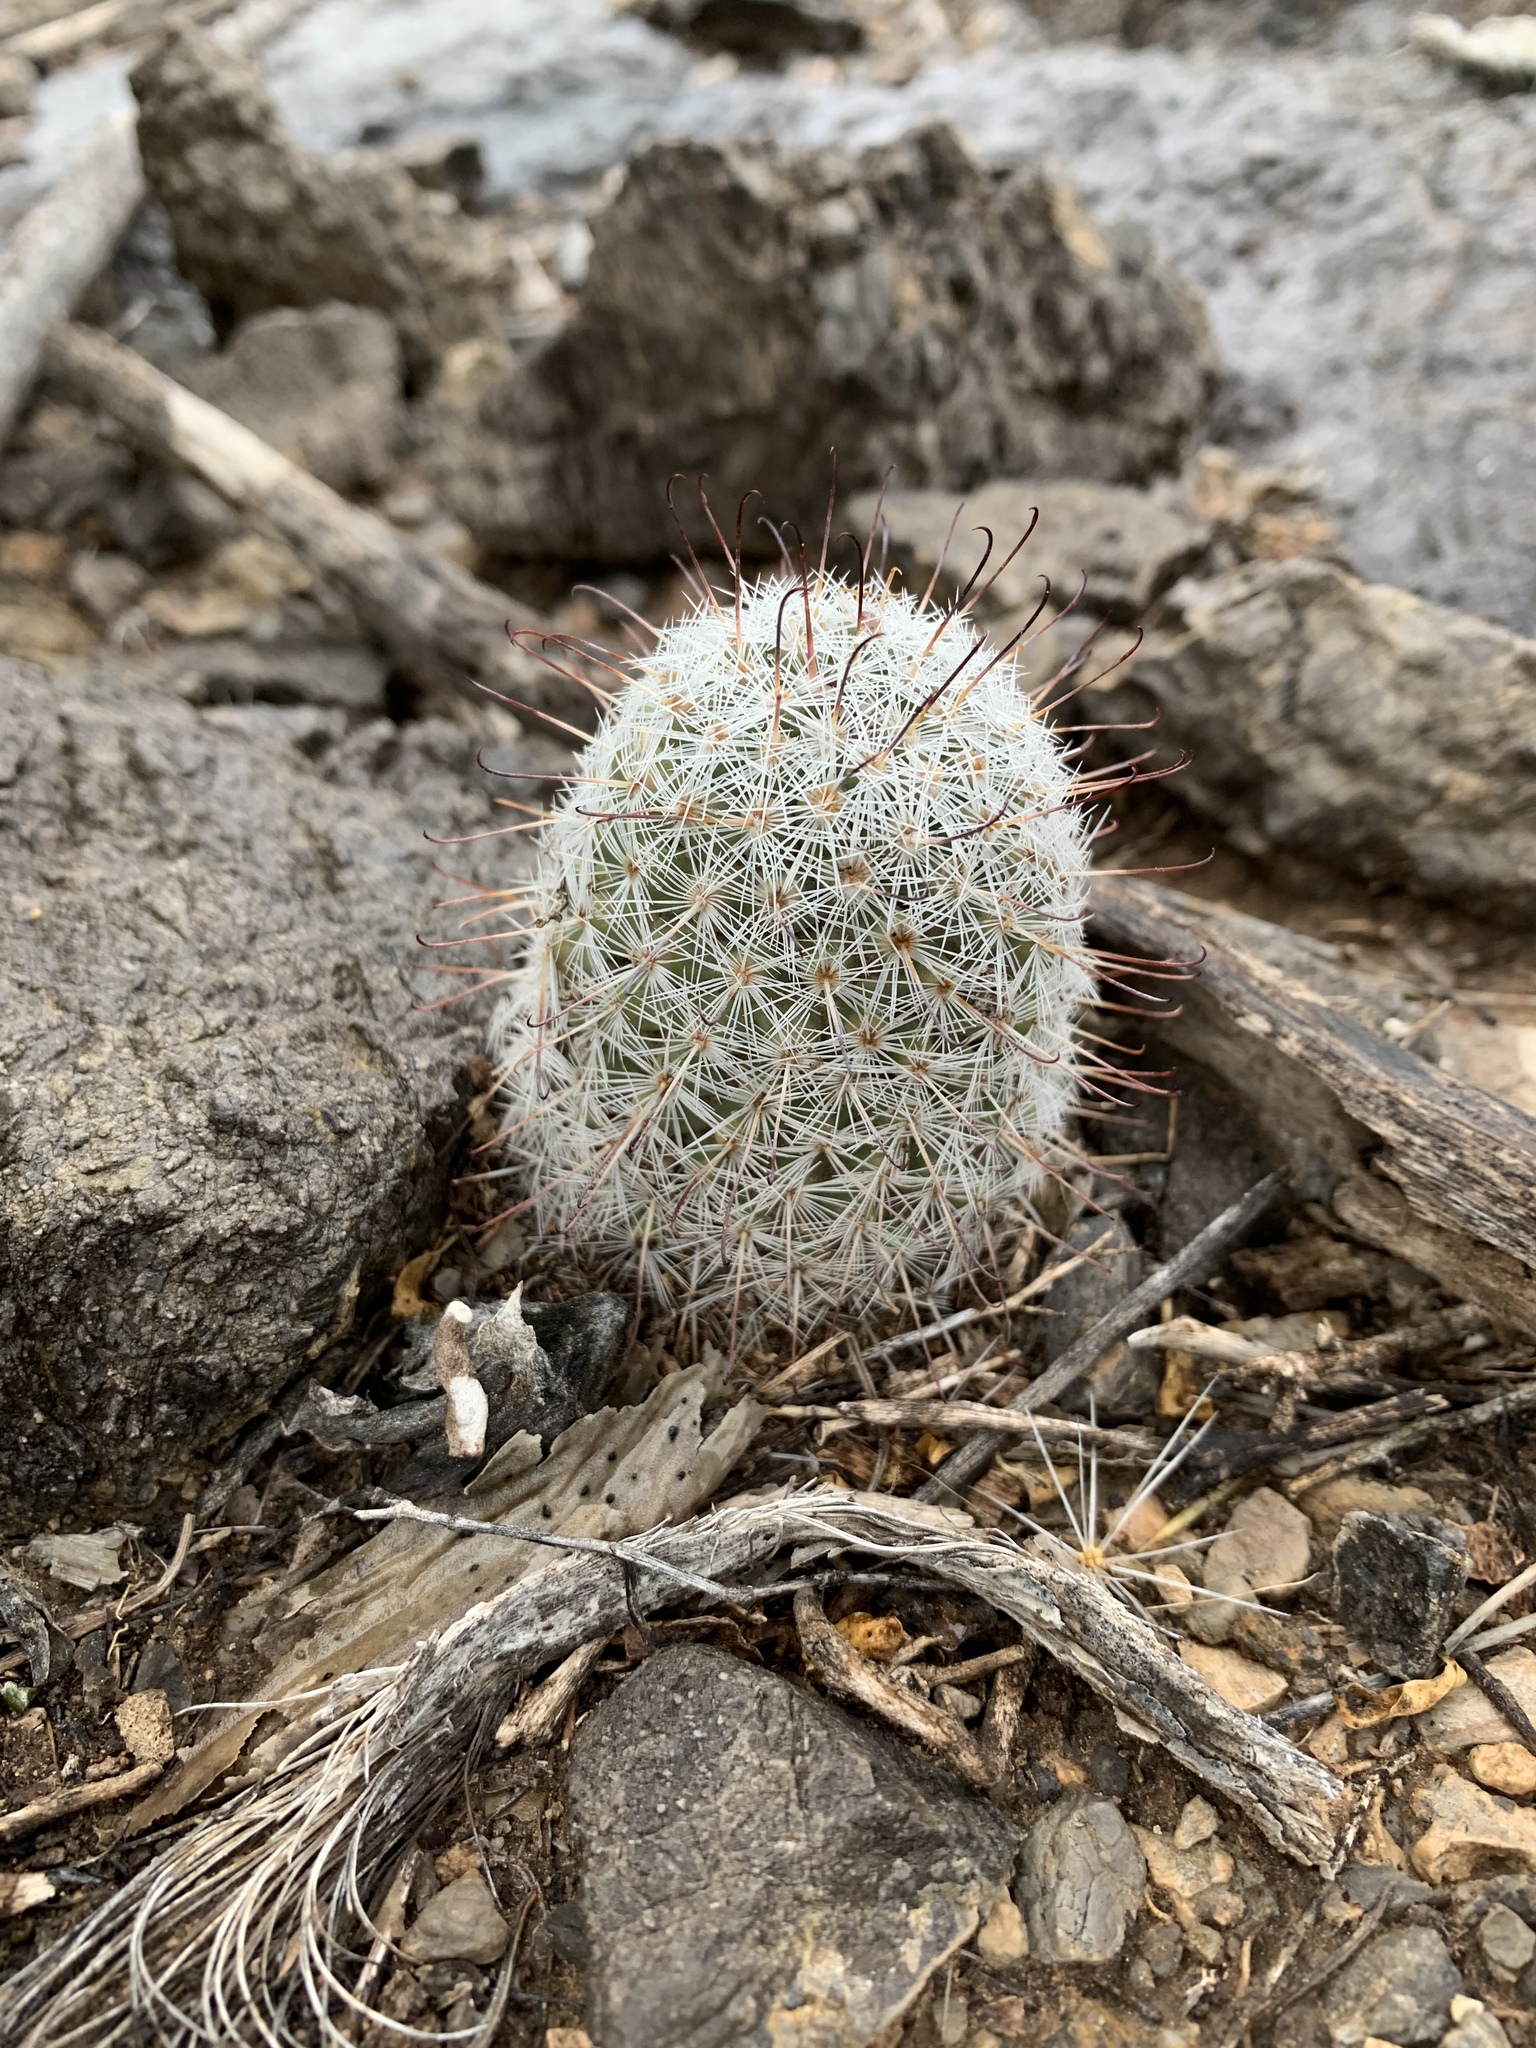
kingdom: Plantae
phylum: Tracheophyta
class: Magnoliopsida
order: Caryophyllales
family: Cactaceae
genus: Cochemiea
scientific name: Cochemiea grahamii
